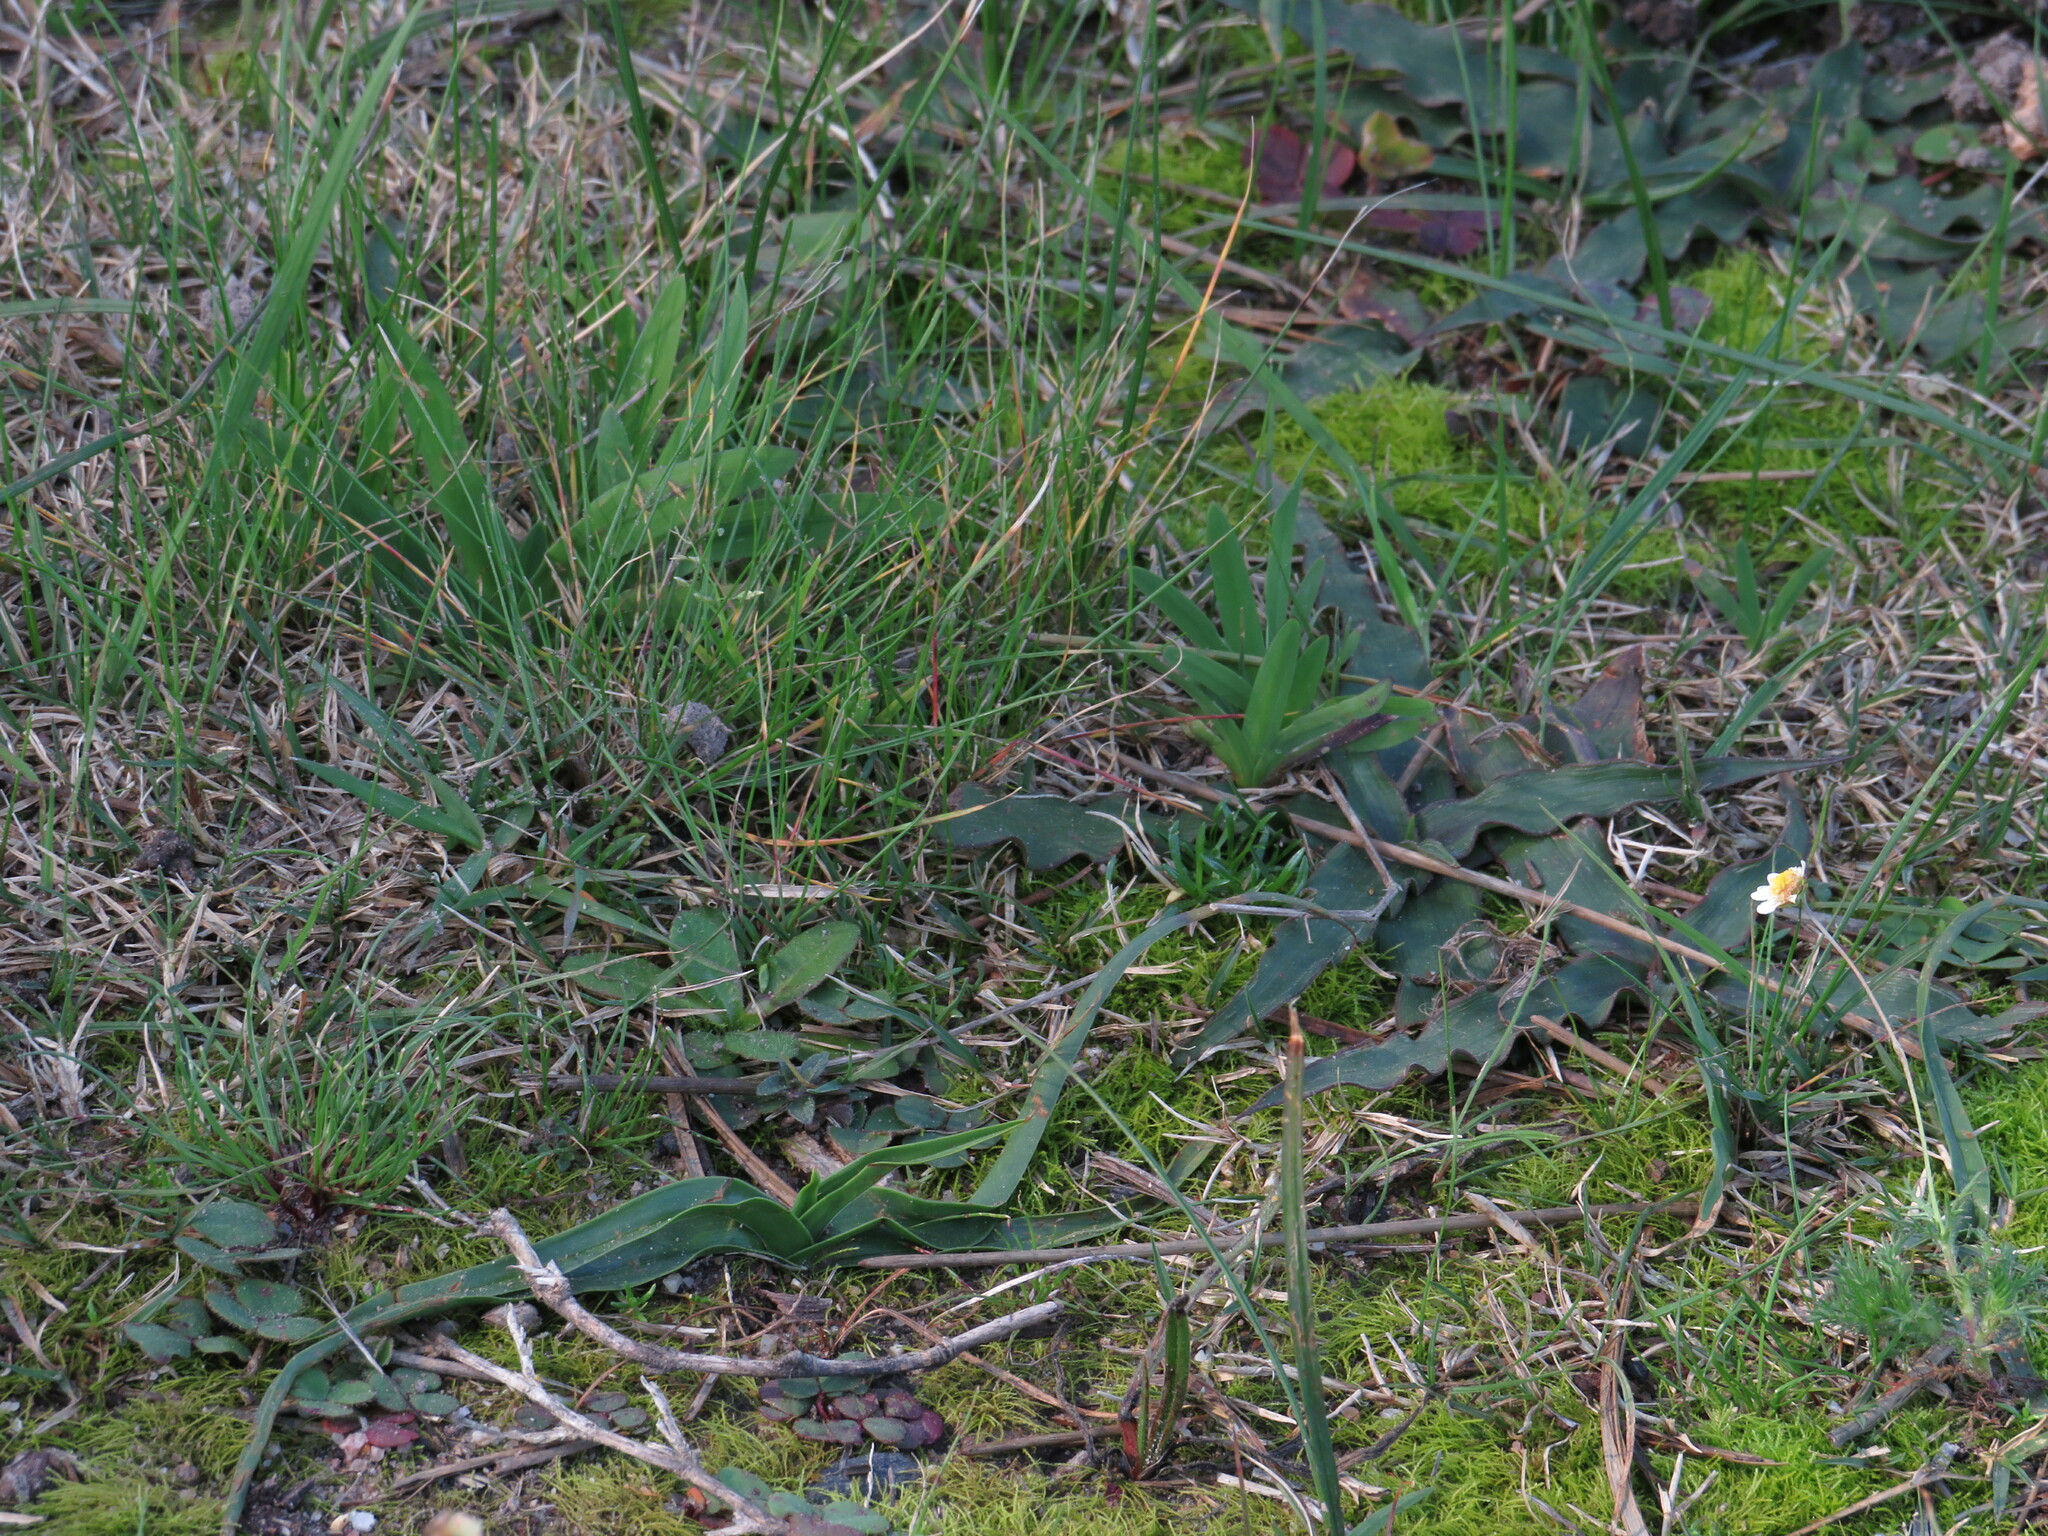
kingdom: Plantae
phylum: Tracheophyta
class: Liliopsida
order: Asparagales
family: Iridaceae
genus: Sparaxis
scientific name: Sparaxis bulbifera
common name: Harlequin-flower
